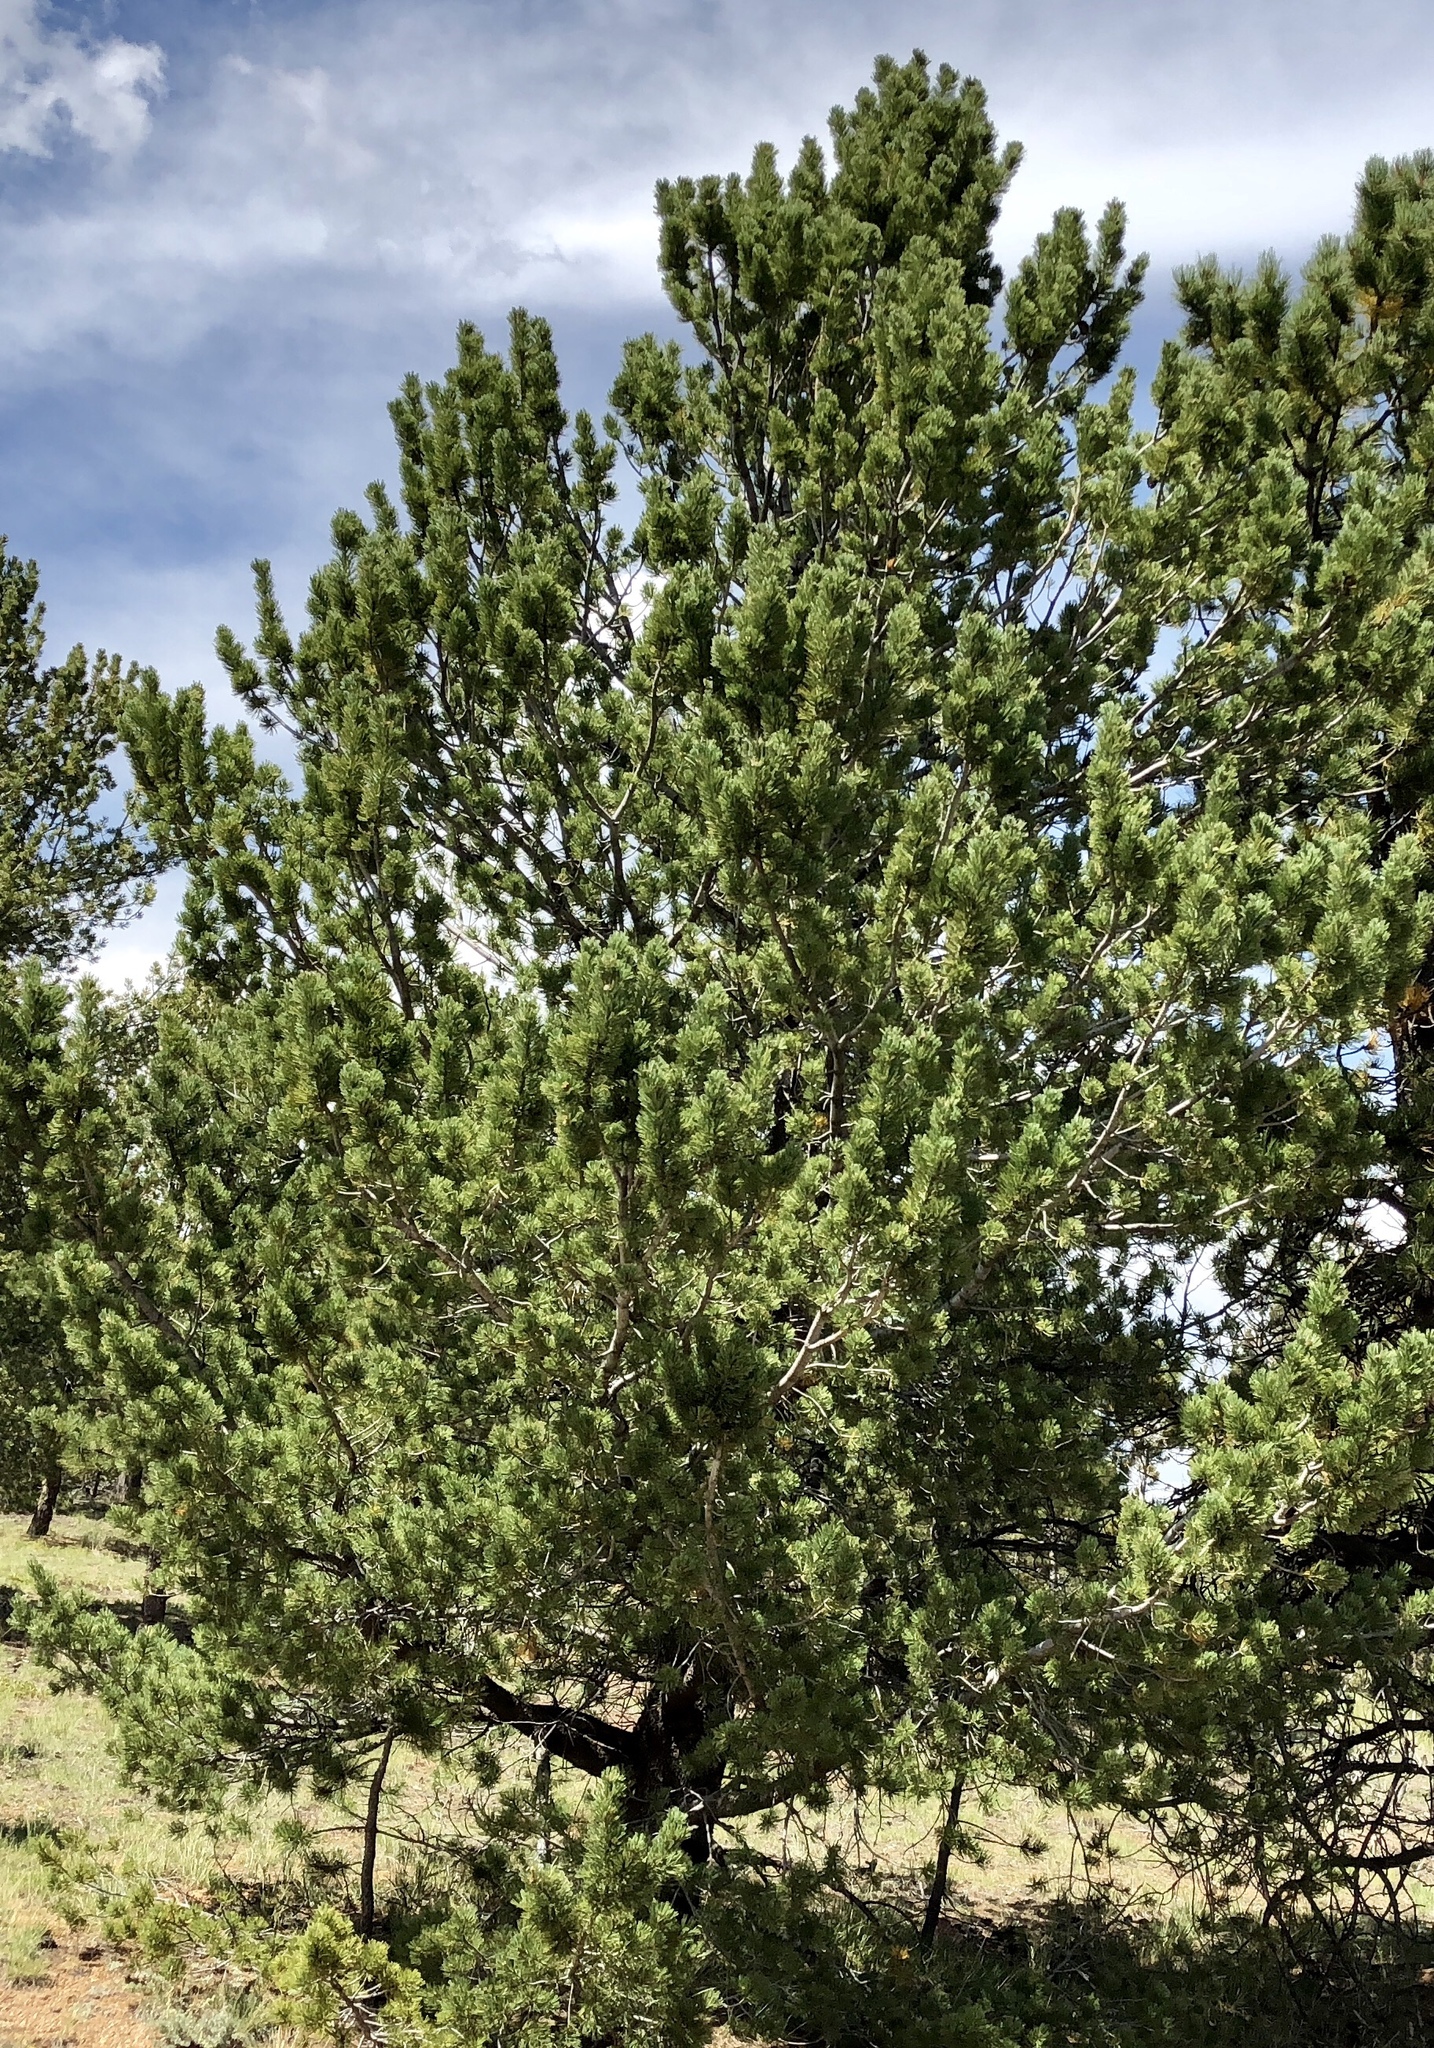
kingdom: Plantae
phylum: Tracheophyta
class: Pinopsida
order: Pinales
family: Pinaceae
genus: Pinus
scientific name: Pinus flexilis
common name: Limber pine
